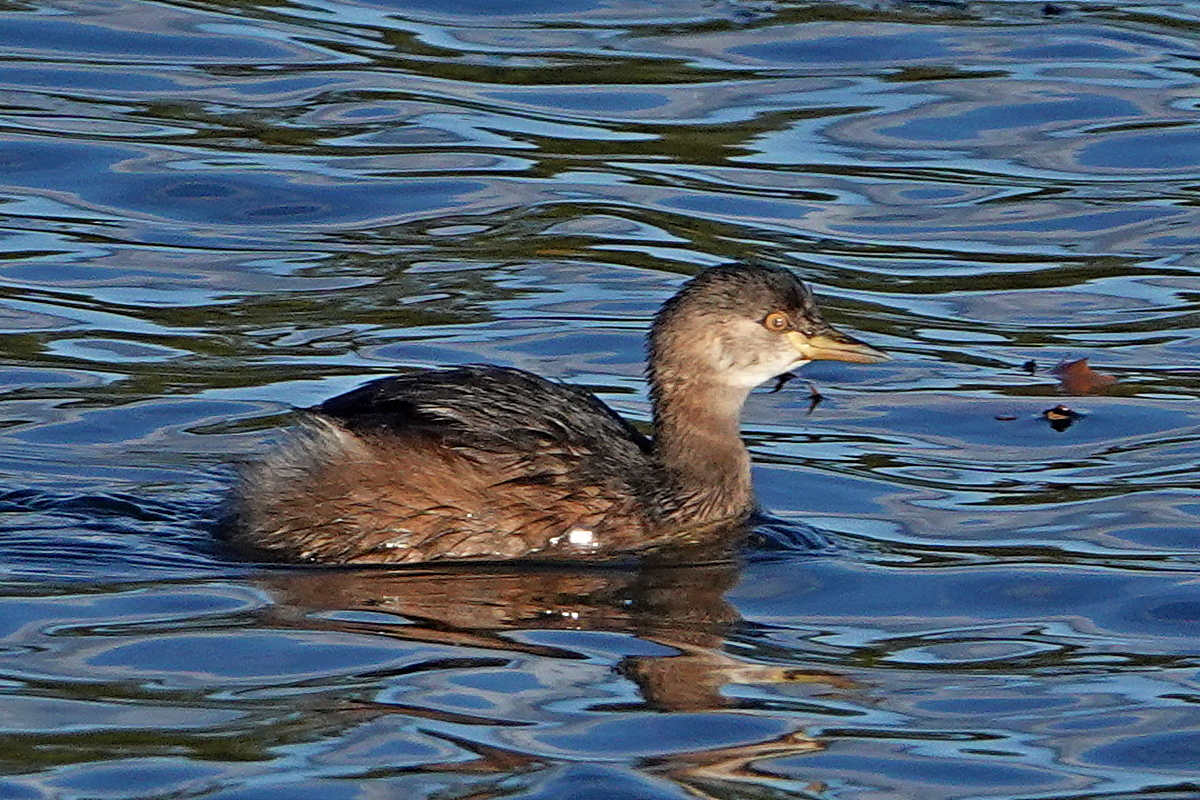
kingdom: Animalia
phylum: Chordata
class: Aves
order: Podicipediformes
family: Podicipedidae
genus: Tachybaptus
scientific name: Tachybaptus novaehollandiae
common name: Australasian grebe
